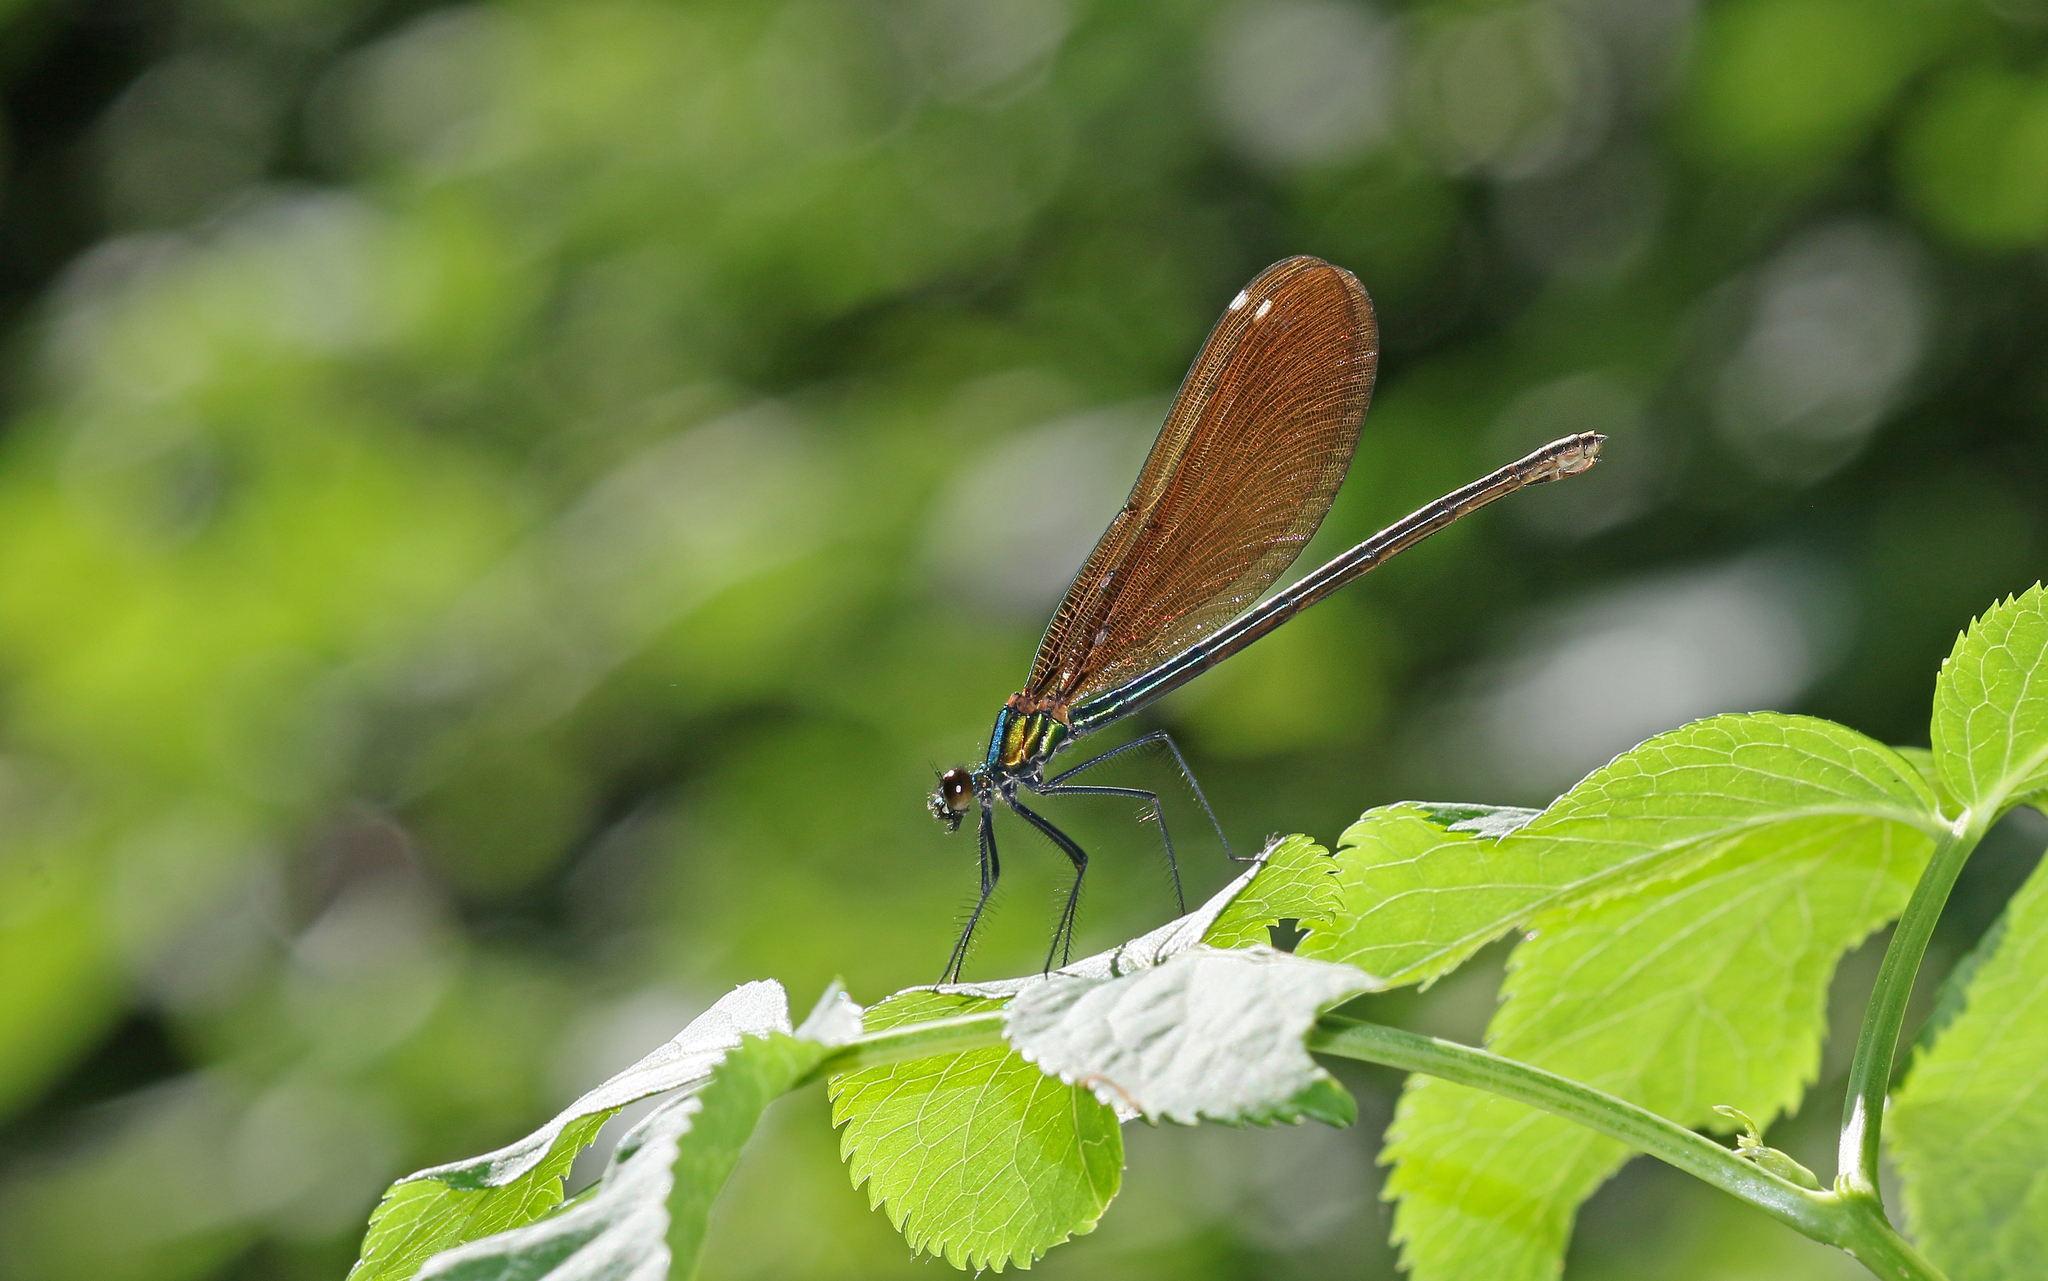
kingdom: Animalia
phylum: Arthropoda
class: Insecta
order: Odonata
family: Calopterygidae
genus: Calopteryx
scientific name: Calopteryx virgo
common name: Beautiful demoiselle
